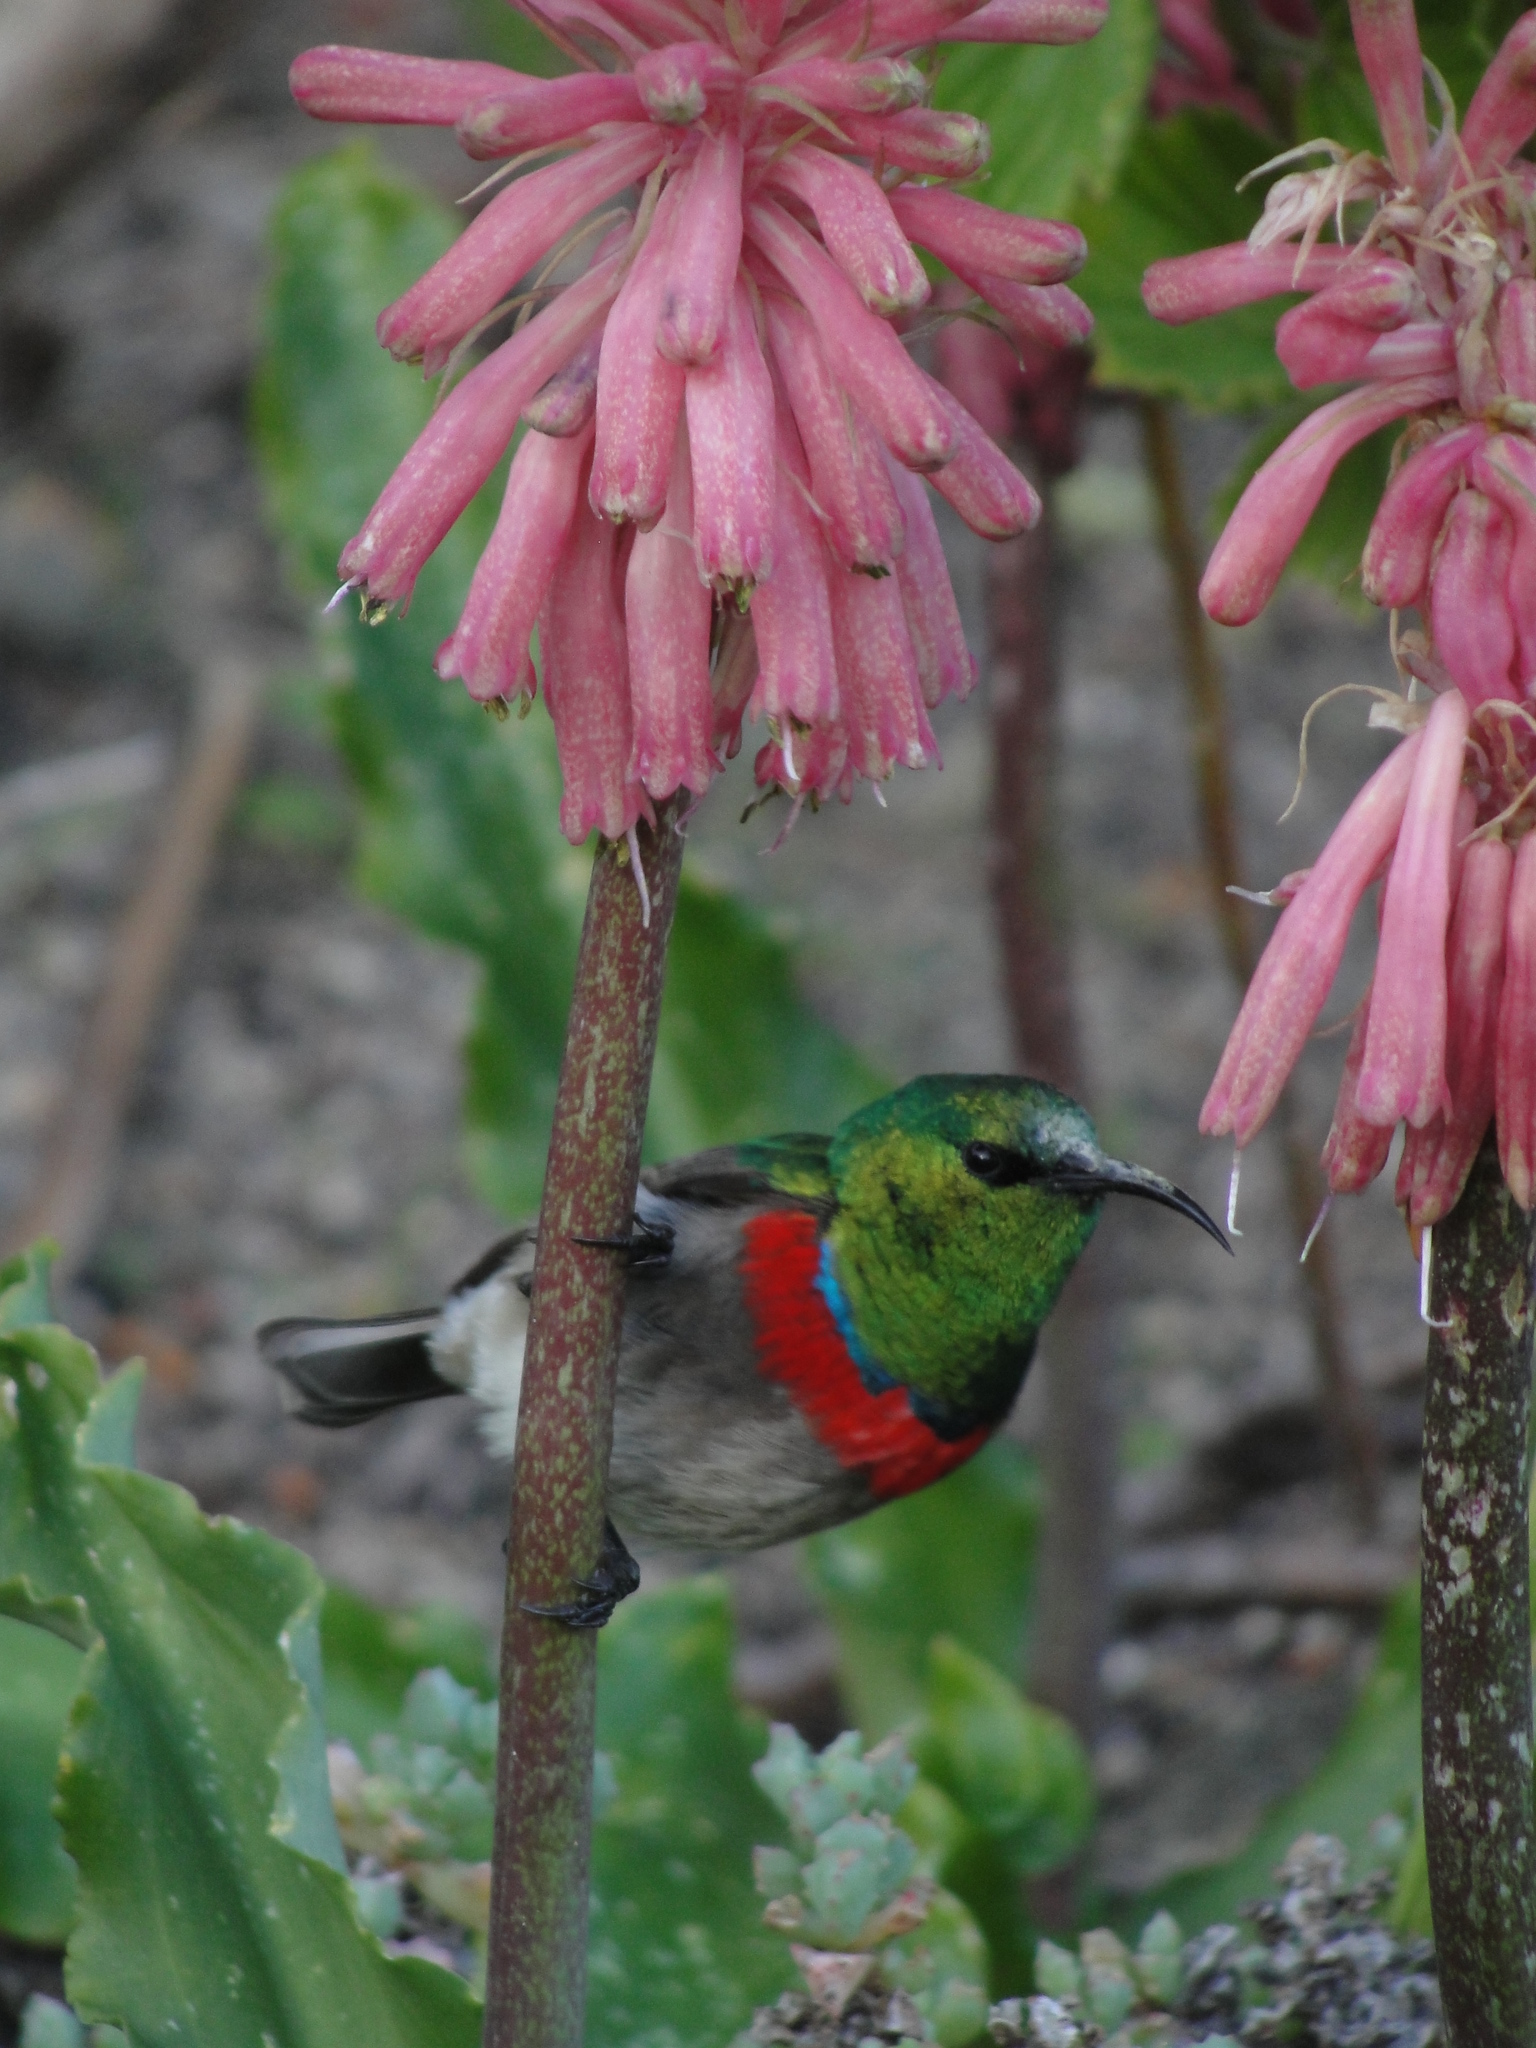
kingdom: Animalia
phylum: Chordata
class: Aves
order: Passeriformes
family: Nectariniidae
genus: Cinnyris
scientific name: Cinnyris chalybeus
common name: Southern double-collared sunbird
